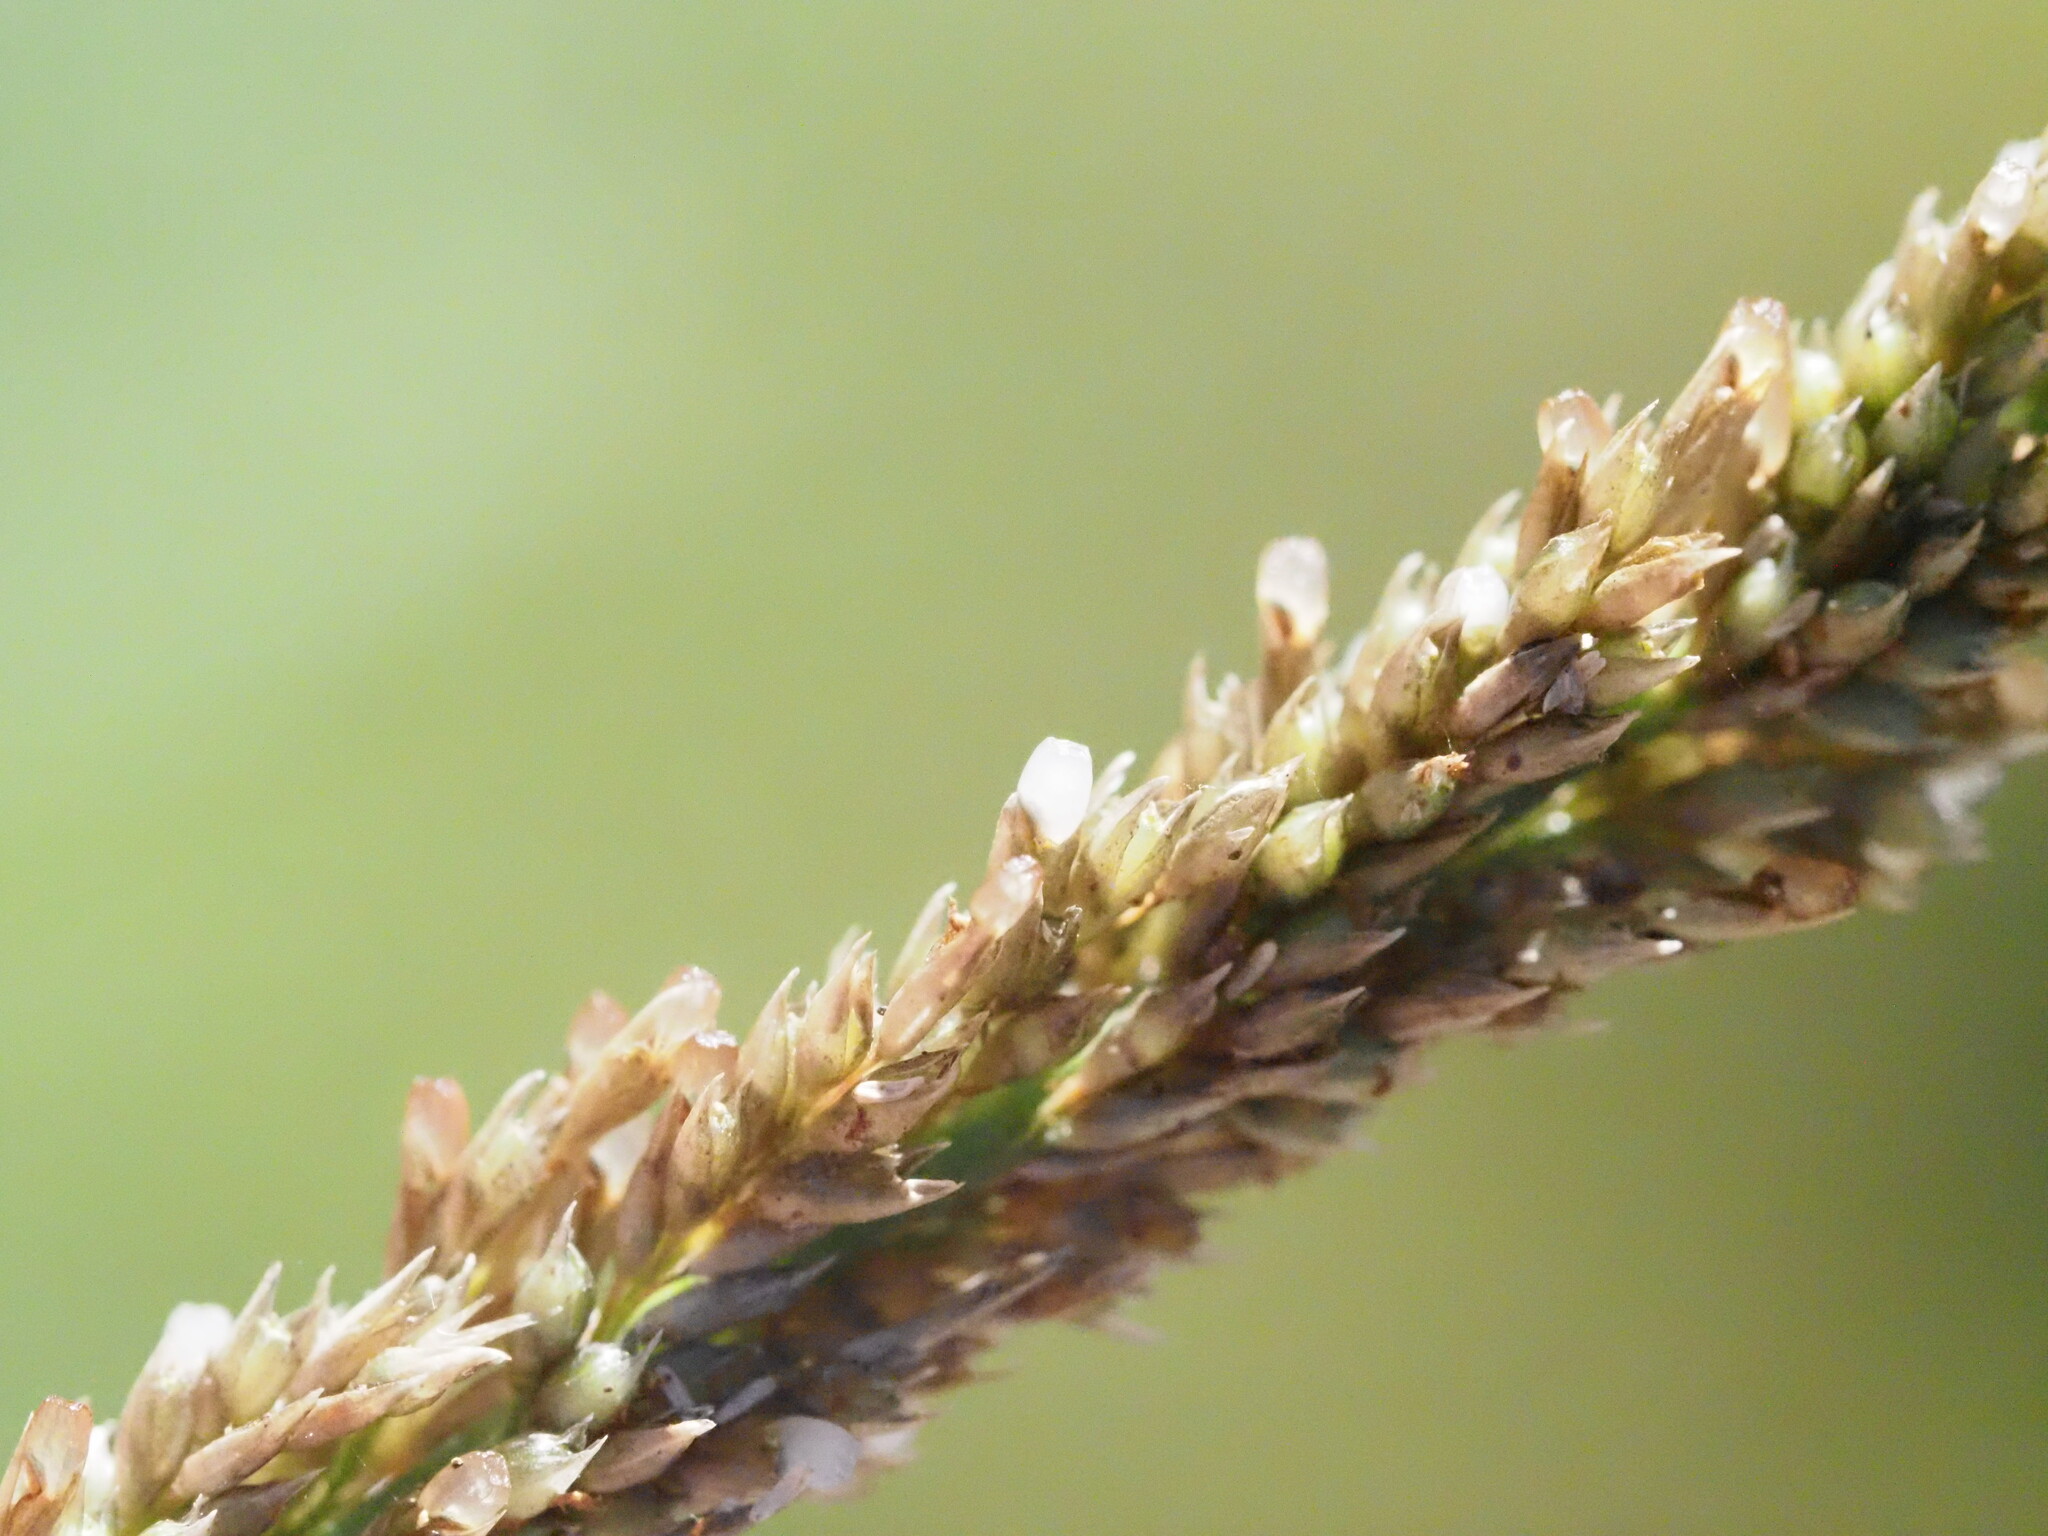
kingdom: Plantae
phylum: Tracheophyta
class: Liliopsida
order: Poales
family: Poaceae
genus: Sporobolus
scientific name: Sporobolus africanus
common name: African dropseed
